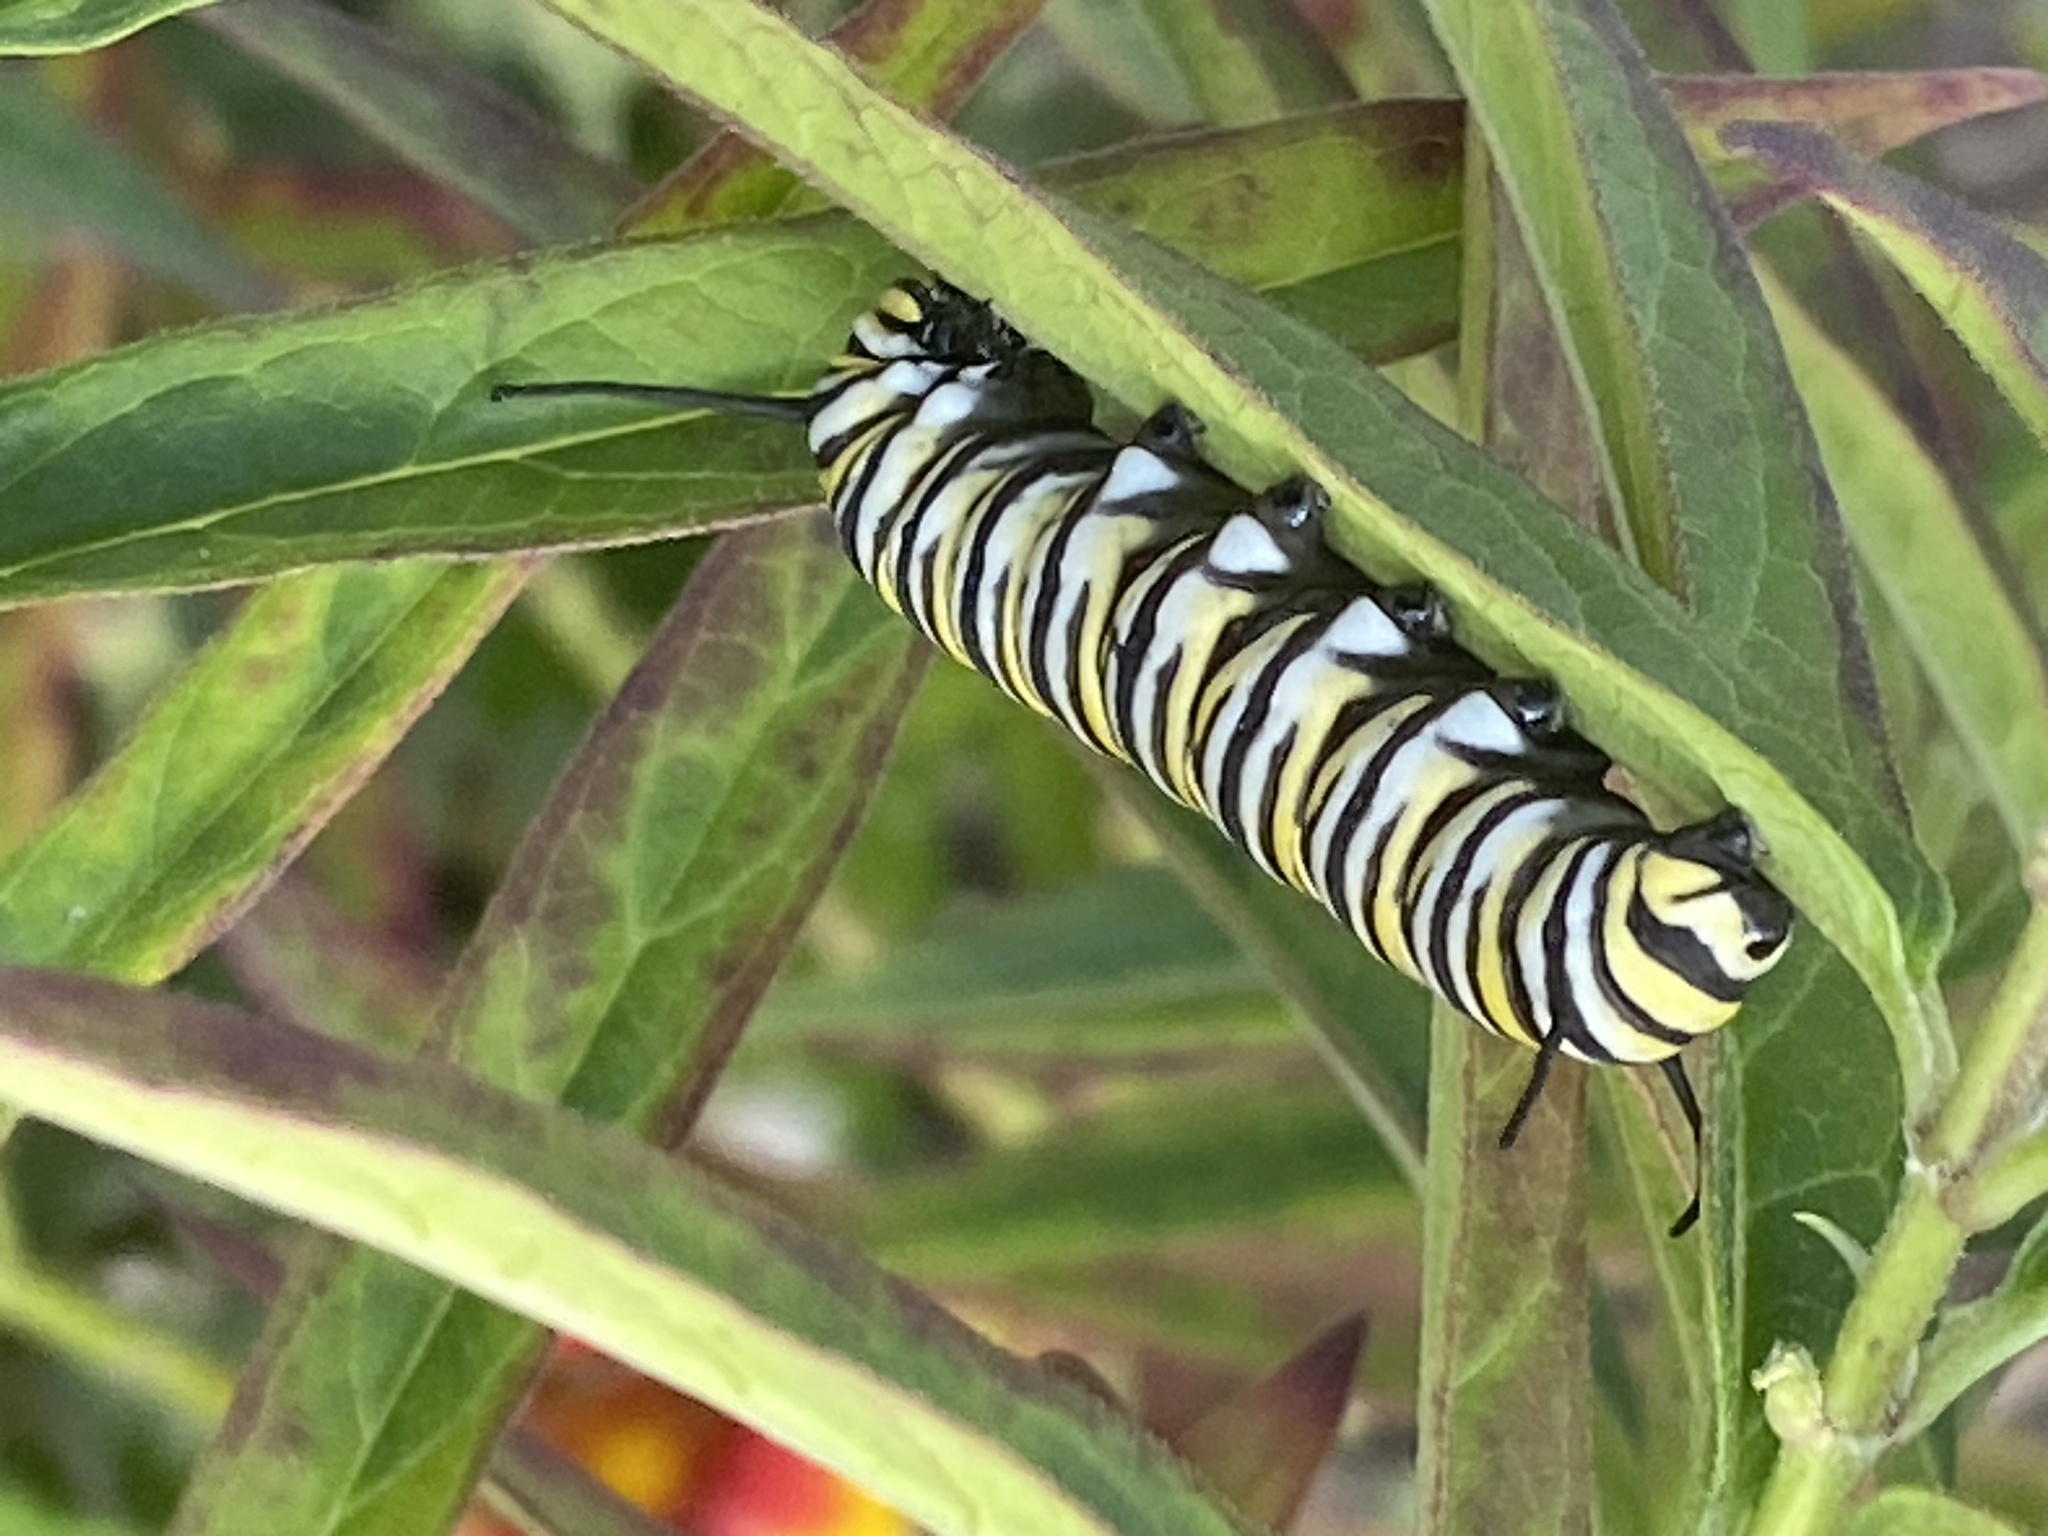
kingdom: Animalia
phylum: Arthropoda
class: Insecta
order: Lepidoptera
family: Nymphalidae
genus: Danaus
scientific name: Danaus plexippus
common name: Monarch
